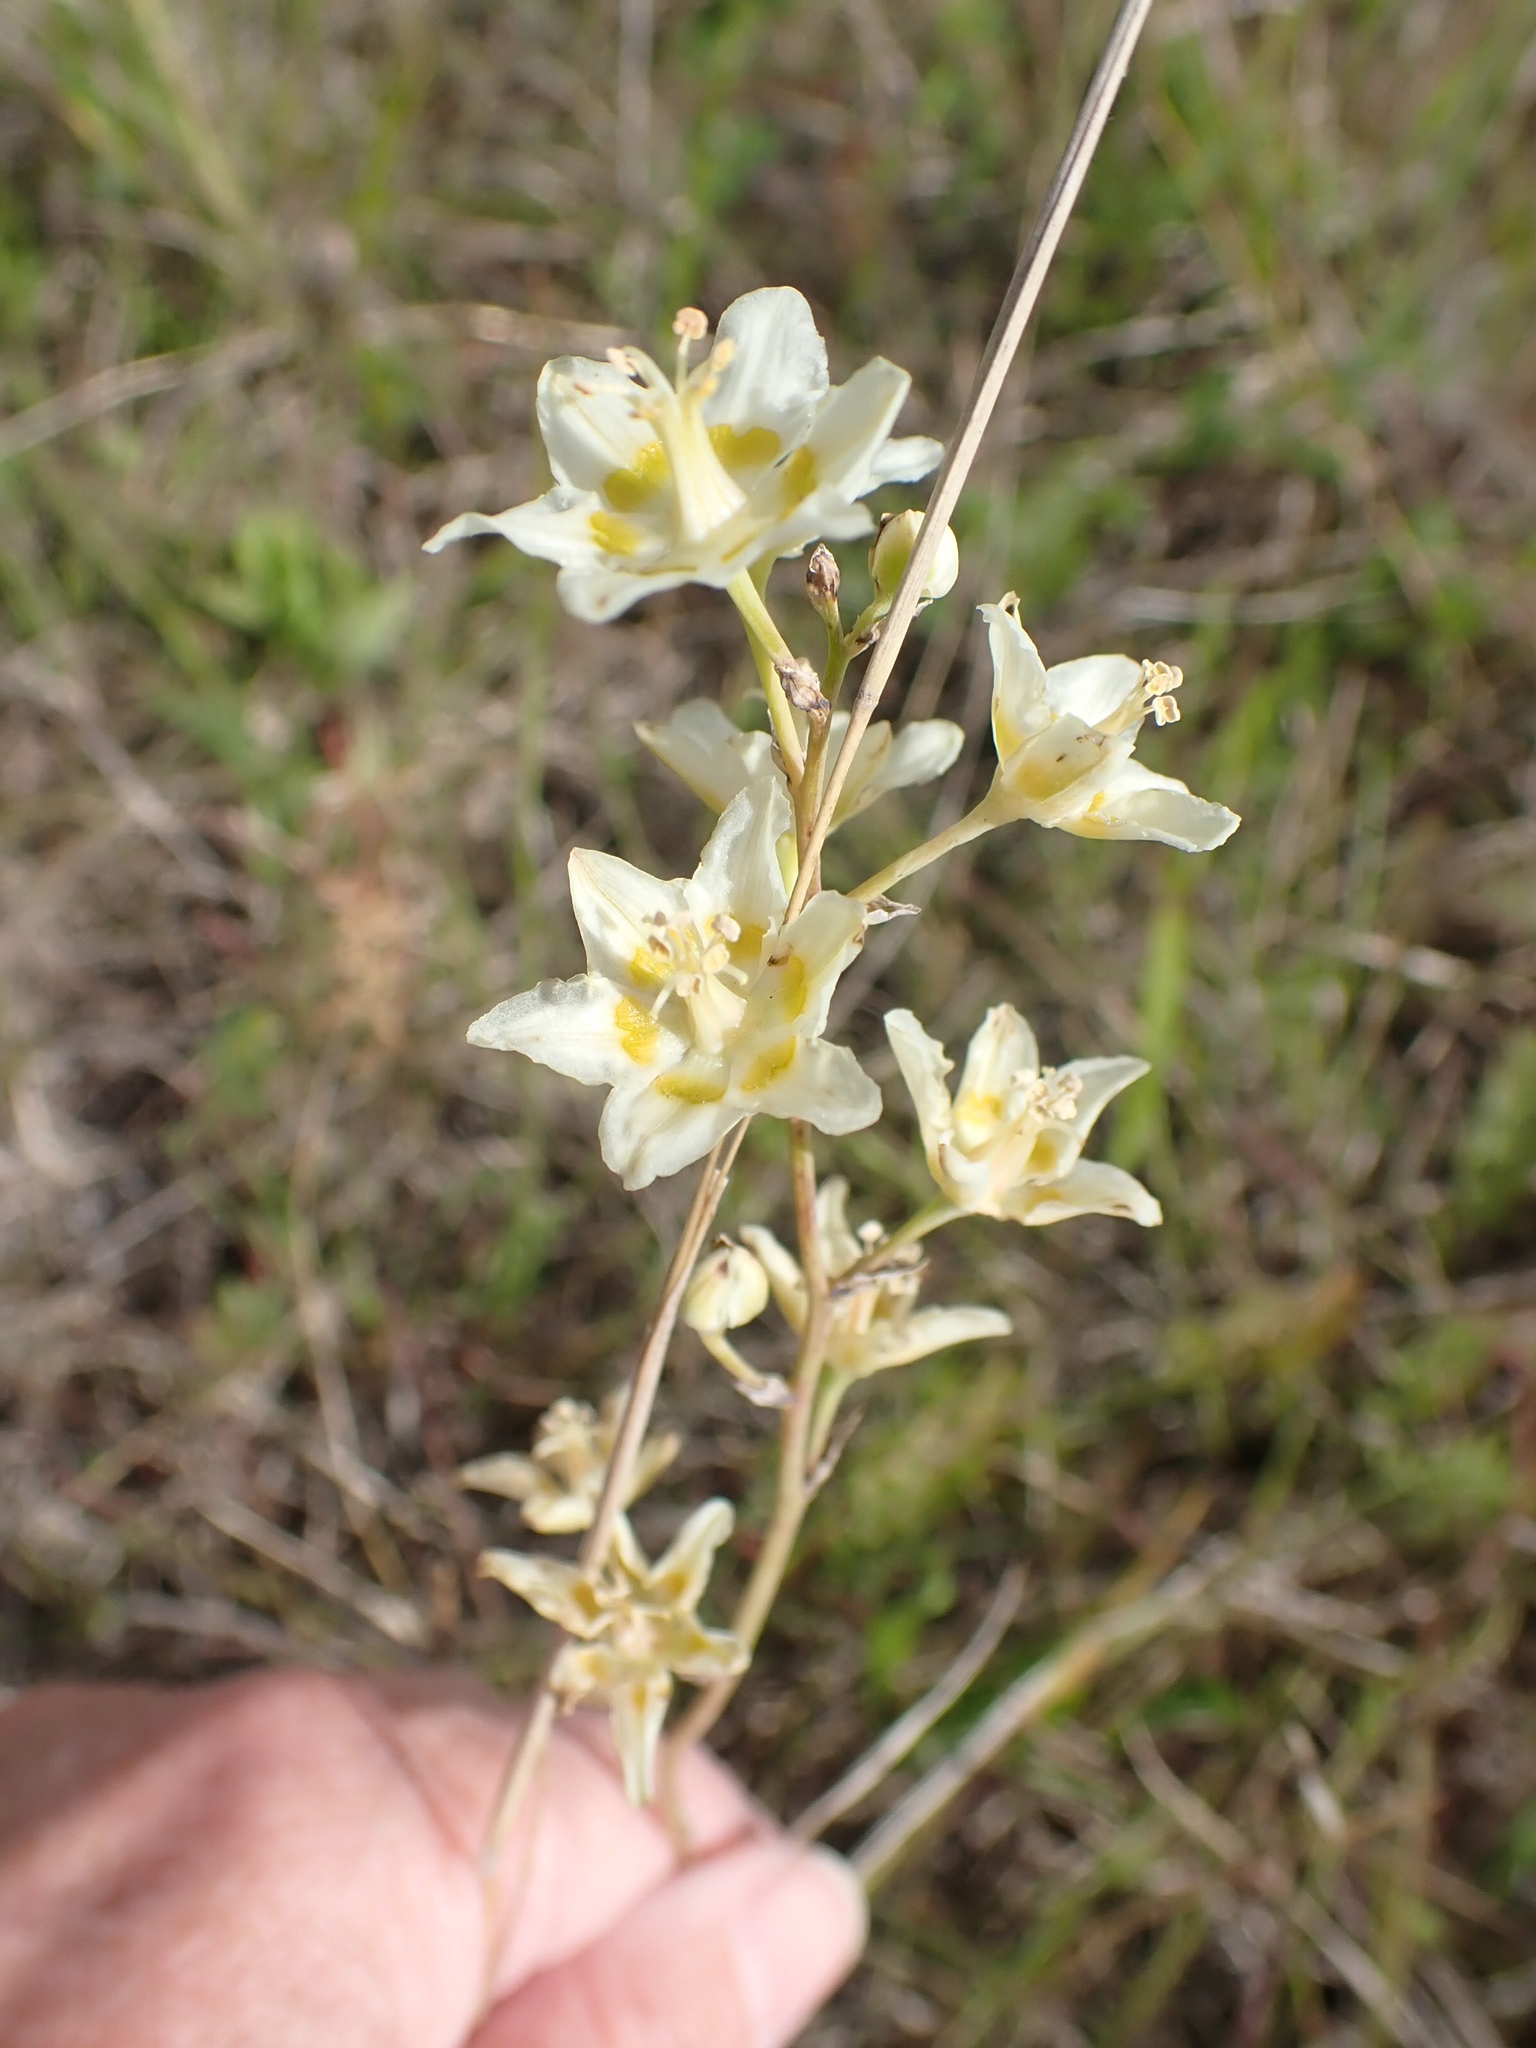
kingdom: Plantae
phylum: Tracheophyta
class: Liliopsida
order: Liliales
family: Melanthiaceae
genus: Anticlea
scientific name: Anticlea elegans
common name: Mountain death camas
